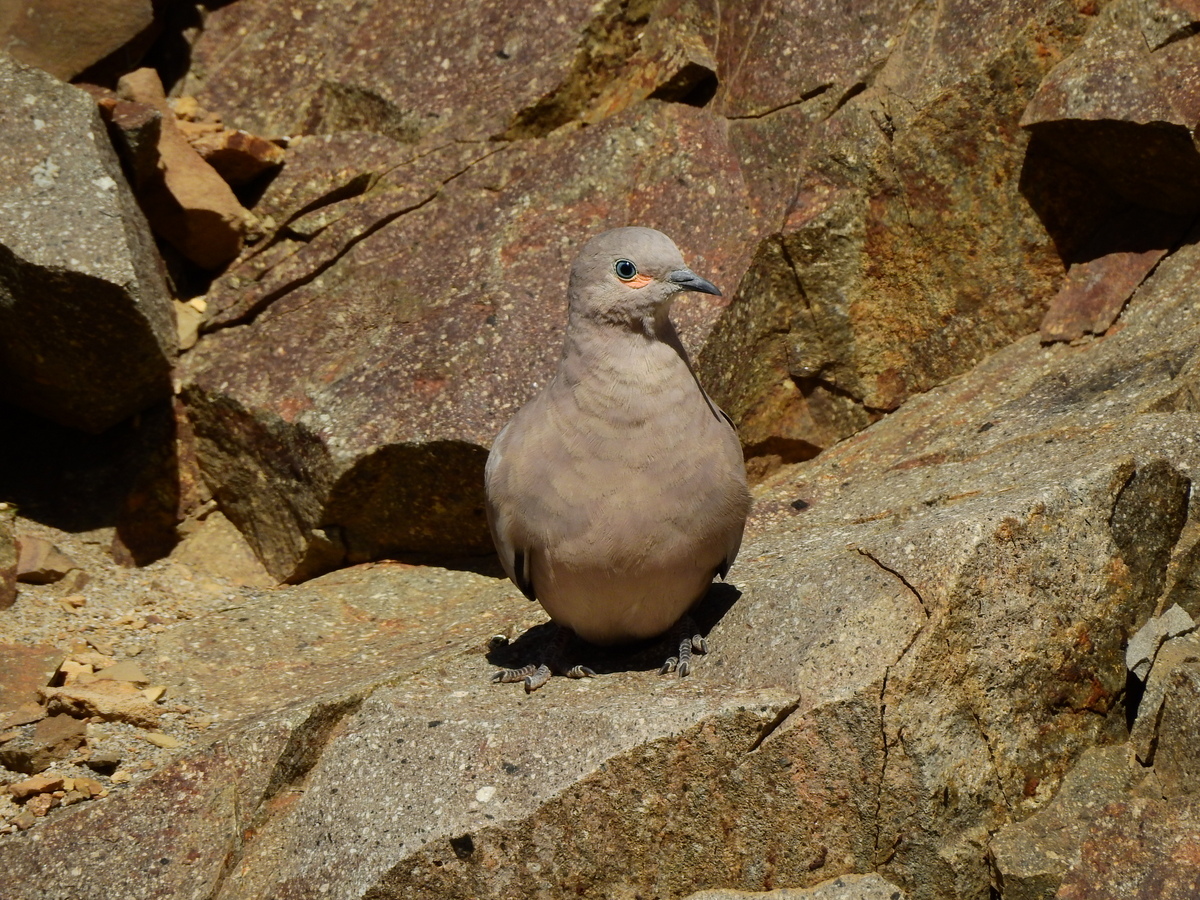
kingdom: Animalia
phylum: Chordata
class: Aves
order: Columbiformes
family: Columbidae
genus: Metriopelia
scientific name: Metriopelia melanoptera
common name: Black-winged ground dove
